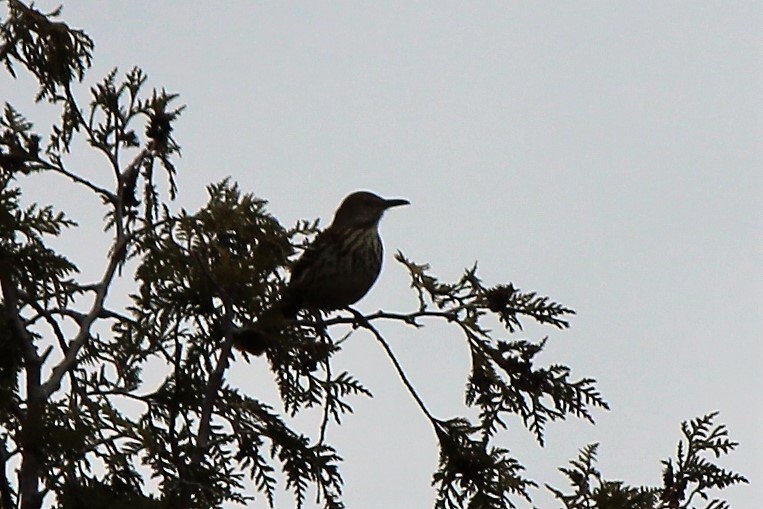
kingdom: Animalia
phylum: Chordata
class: Aves
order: Passeriformes
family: Mimidae
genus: Toxostoma
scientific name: Toxostoma rufum
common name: Brown thrasher
